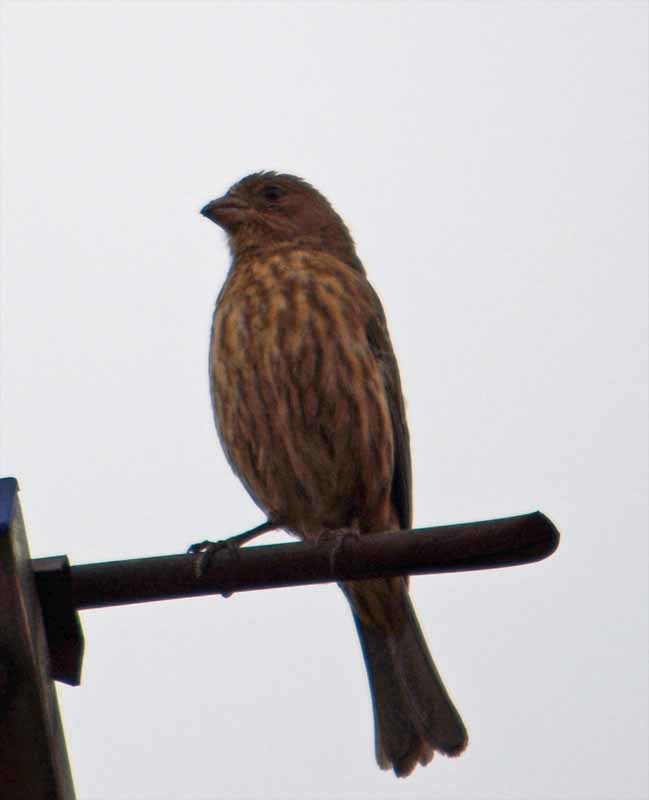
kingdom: Animalia
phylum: Chordata
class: Aves
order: Passeriformes
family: Fringillidae
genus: Haemorhous
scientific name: Haemorhous mexicanus
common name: House finch
